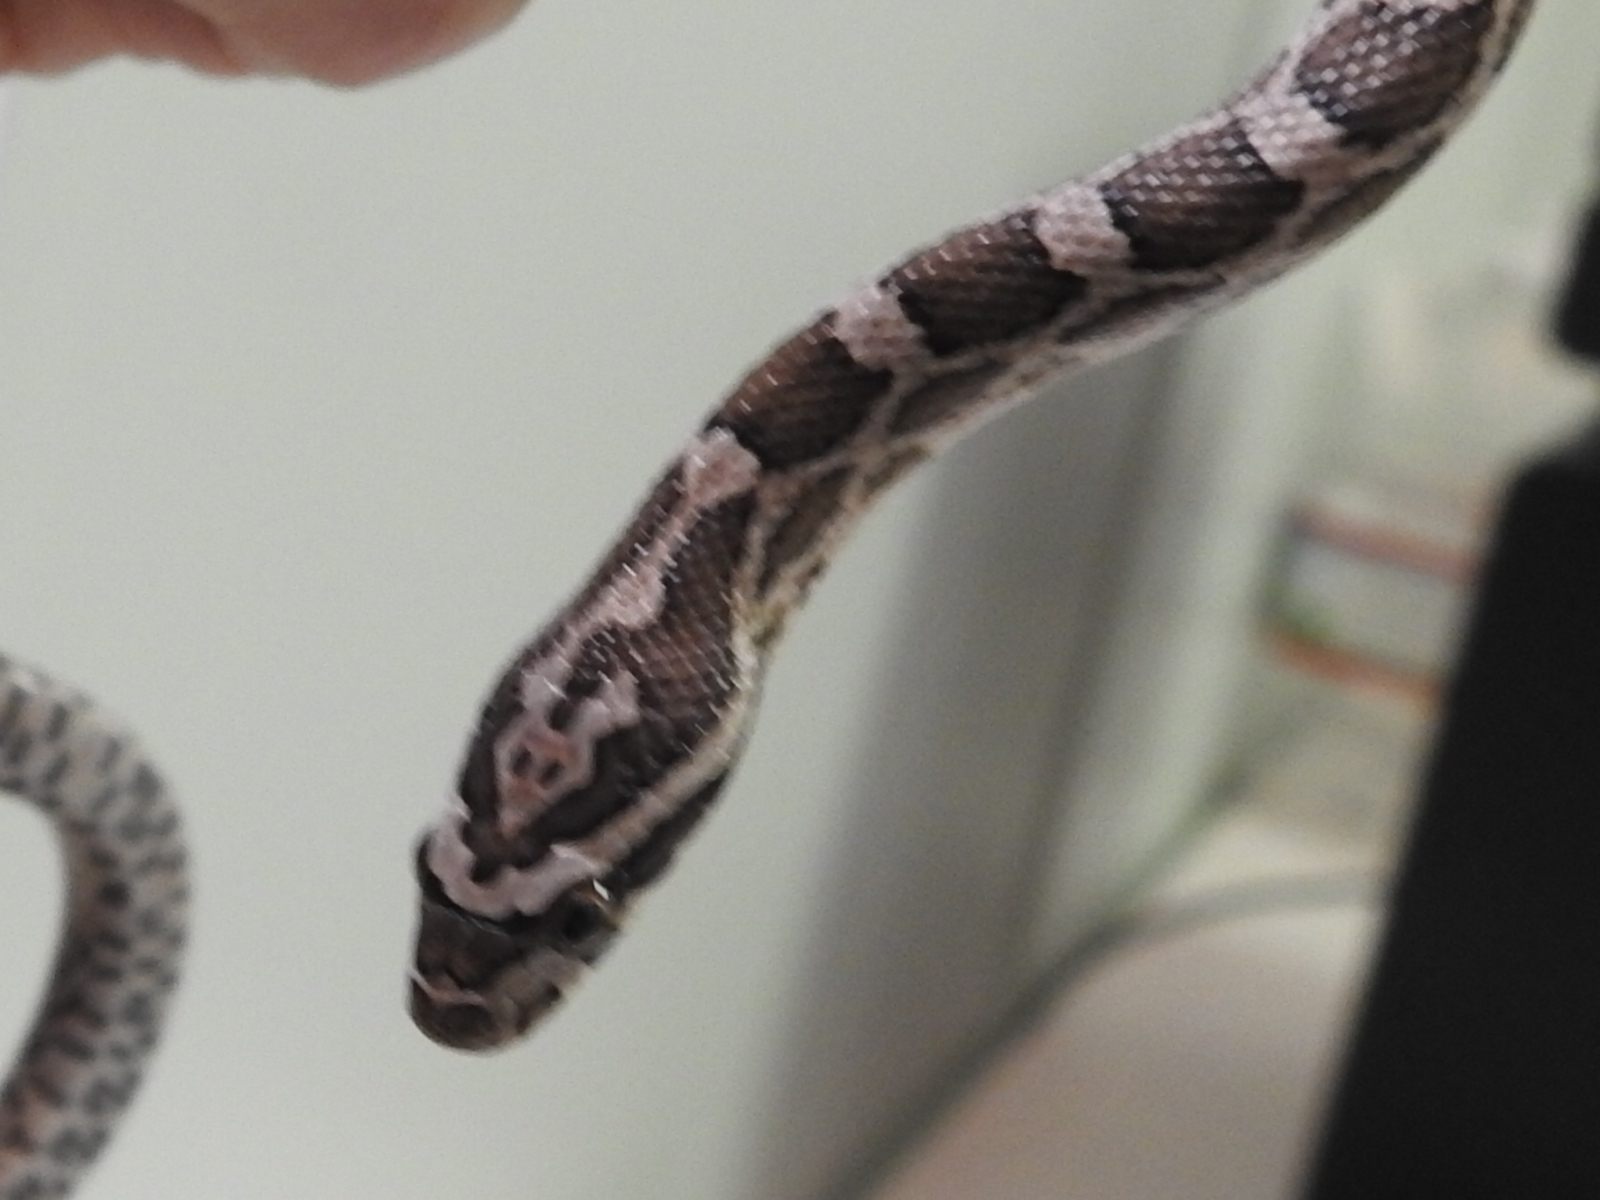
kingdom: Animalia
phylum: Chordata
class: Squamata
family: Colubridae
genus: Pantherophis
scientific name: Pantherophis emoryi
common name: Great plains rat snake
